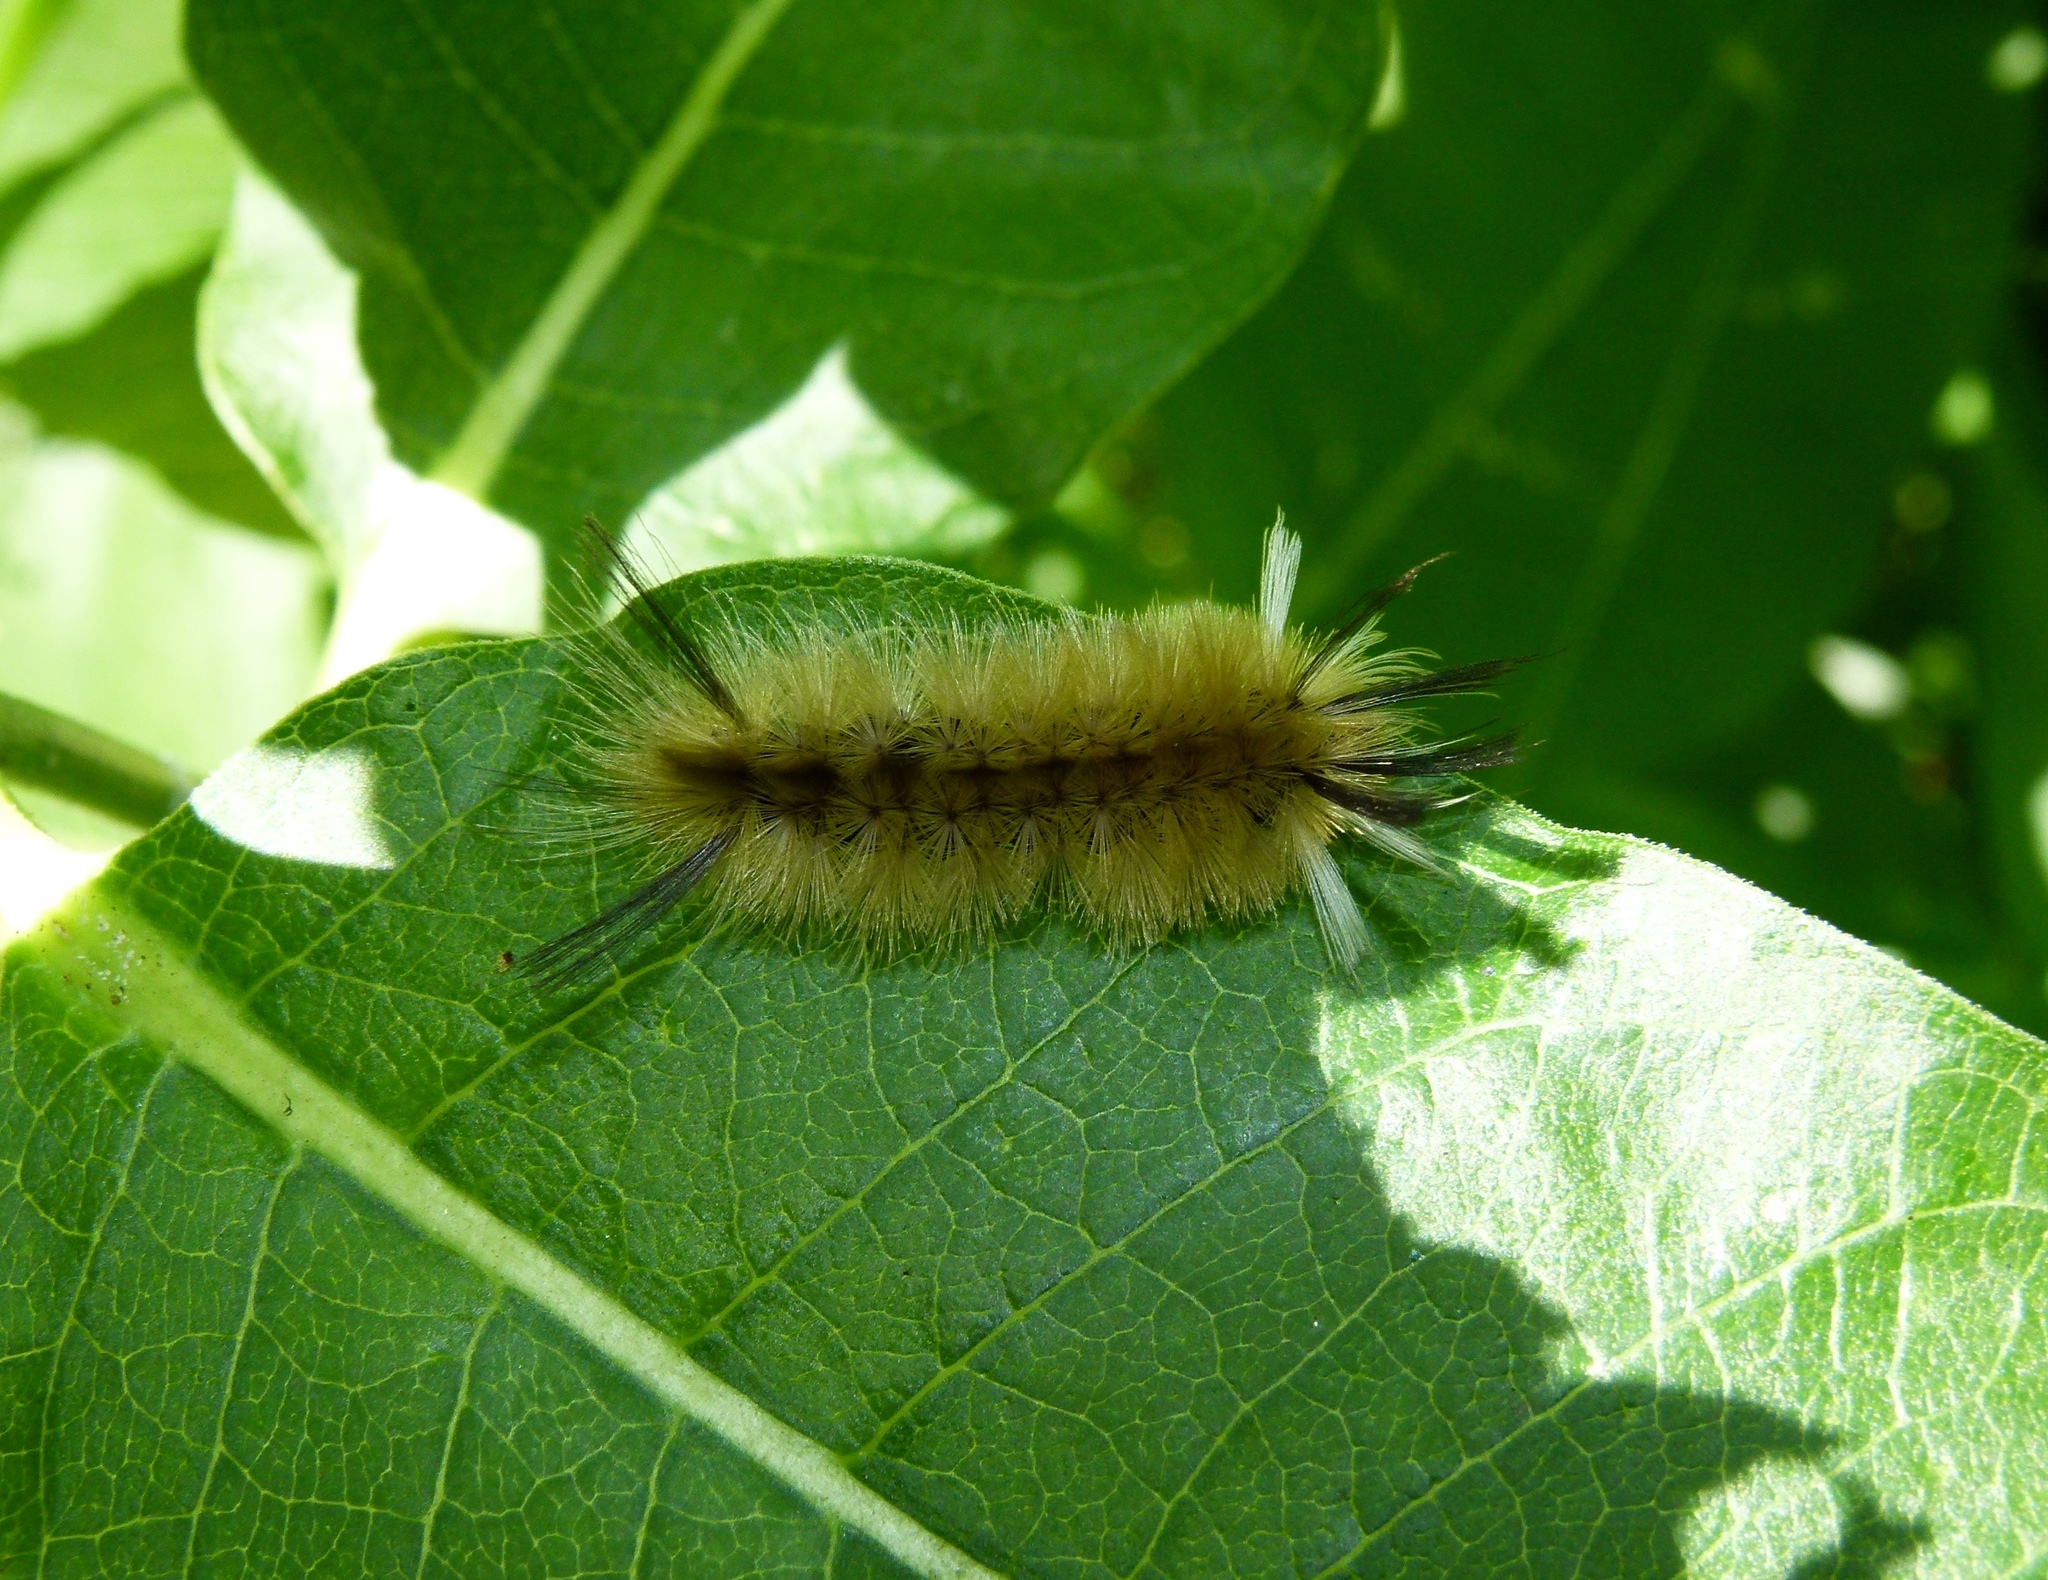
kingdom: Animalia
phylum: Arthropoda
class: Insecta
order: Lepidoptera
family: Erebidae
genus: Halysidota
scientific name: Halysidota tessellaris
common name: Banded tussock moth
